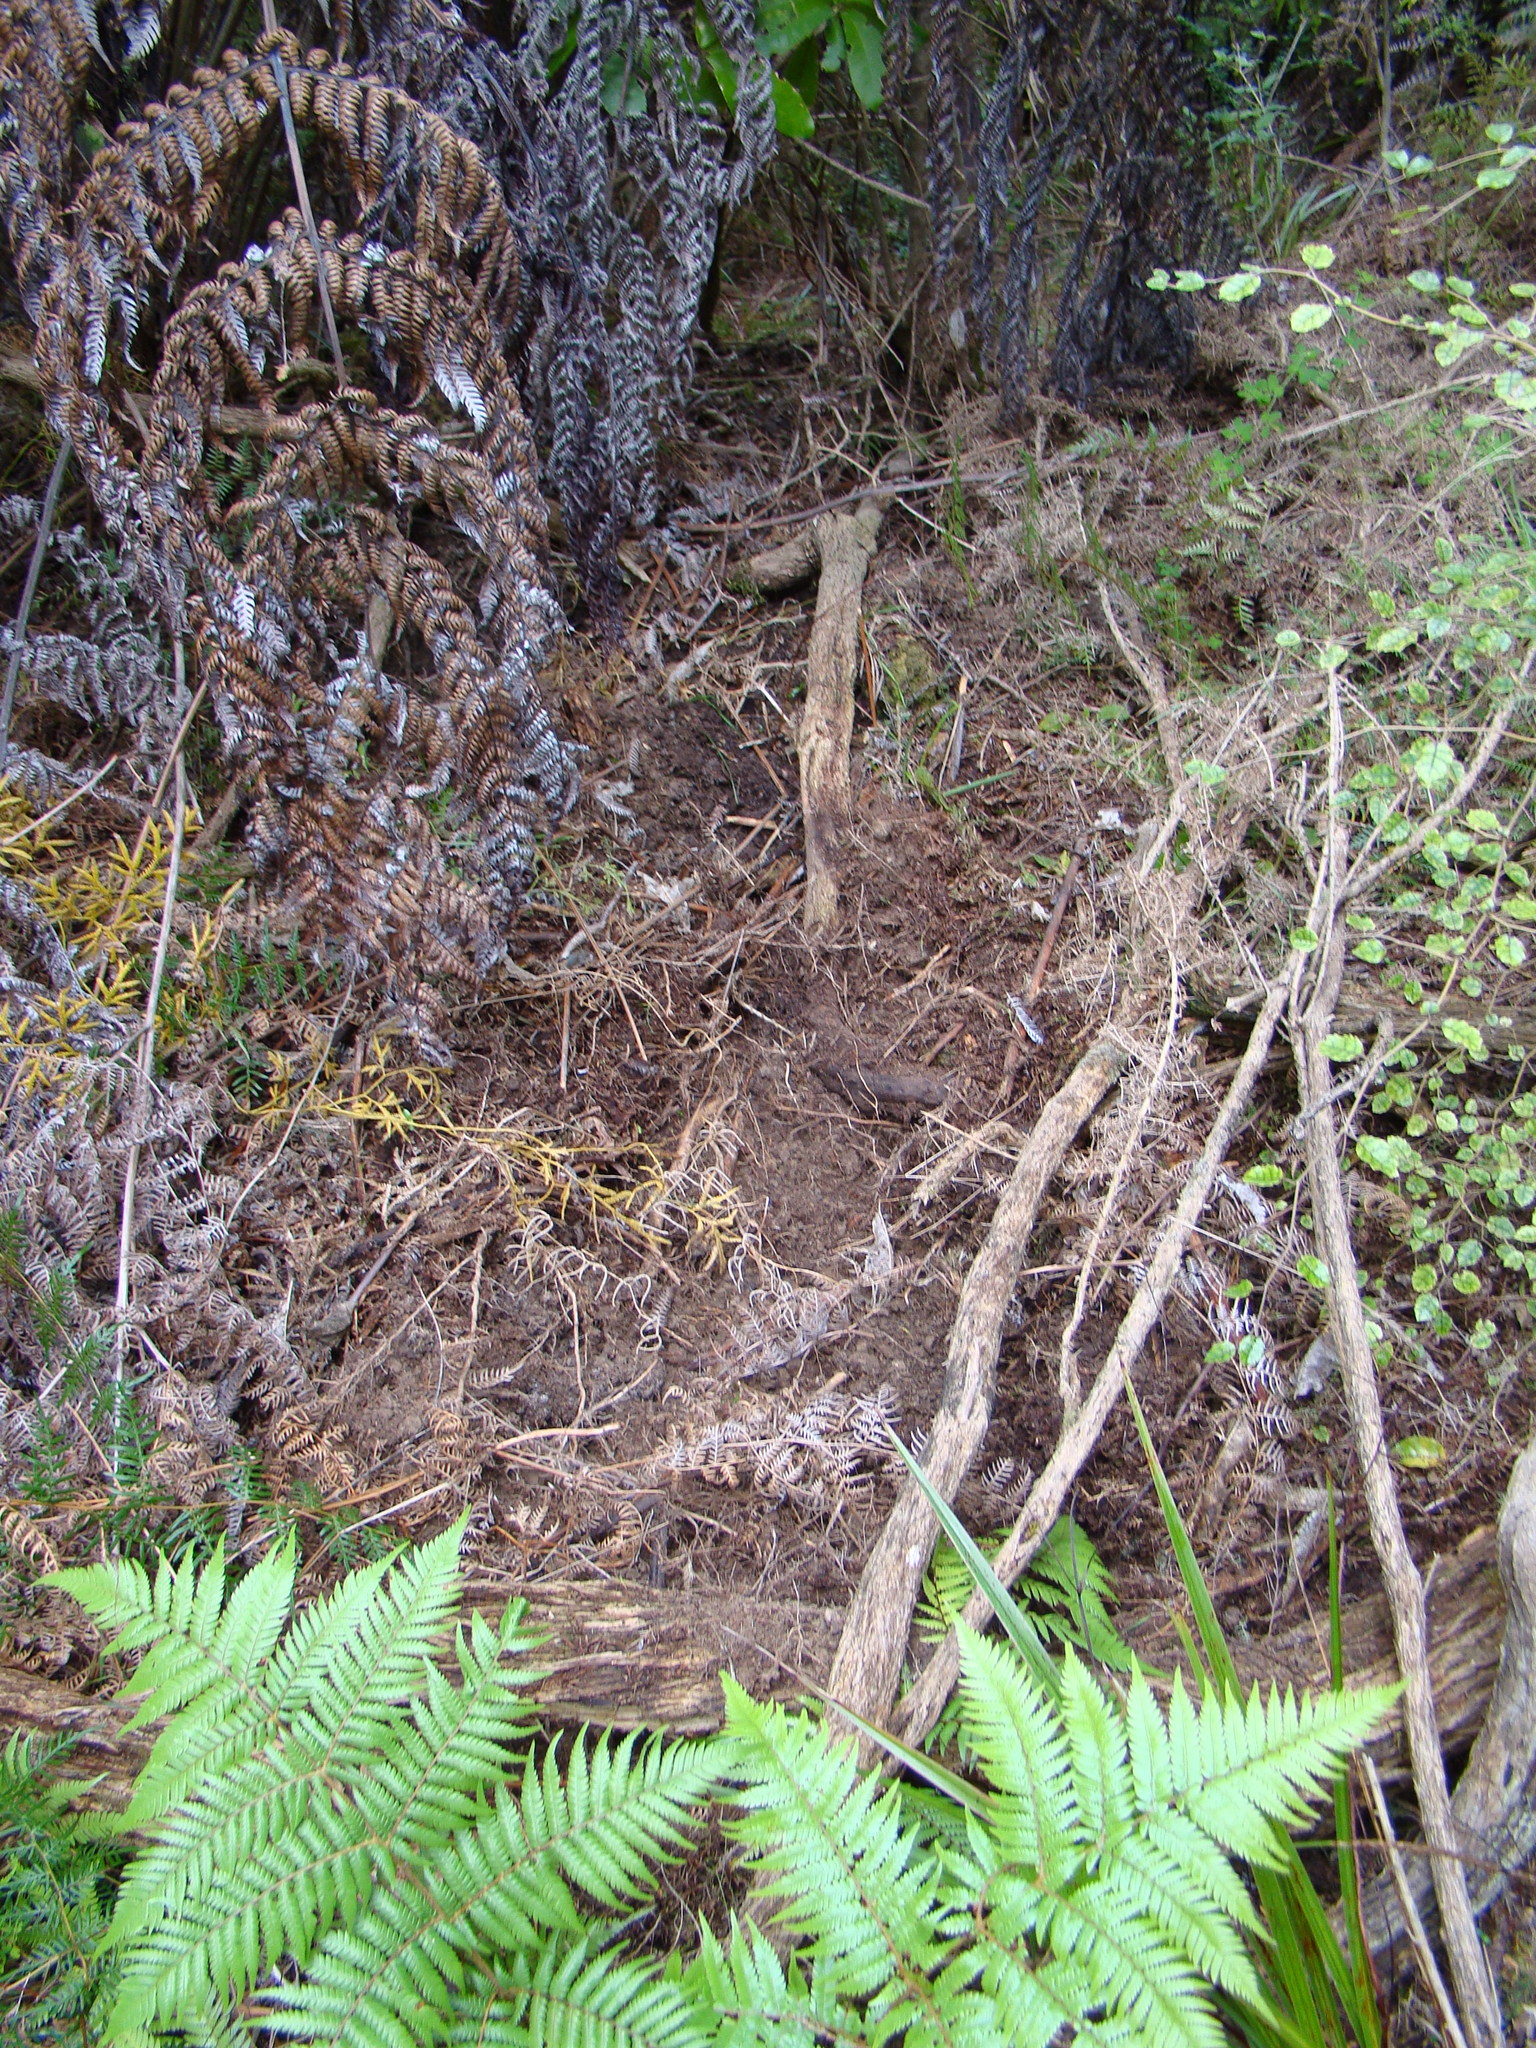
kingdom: Animalia
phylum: Chordata
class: Mammalia
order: Artiodactyla
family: Suidae
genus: Sus
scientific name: Sus scrofa
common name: Wild boar
